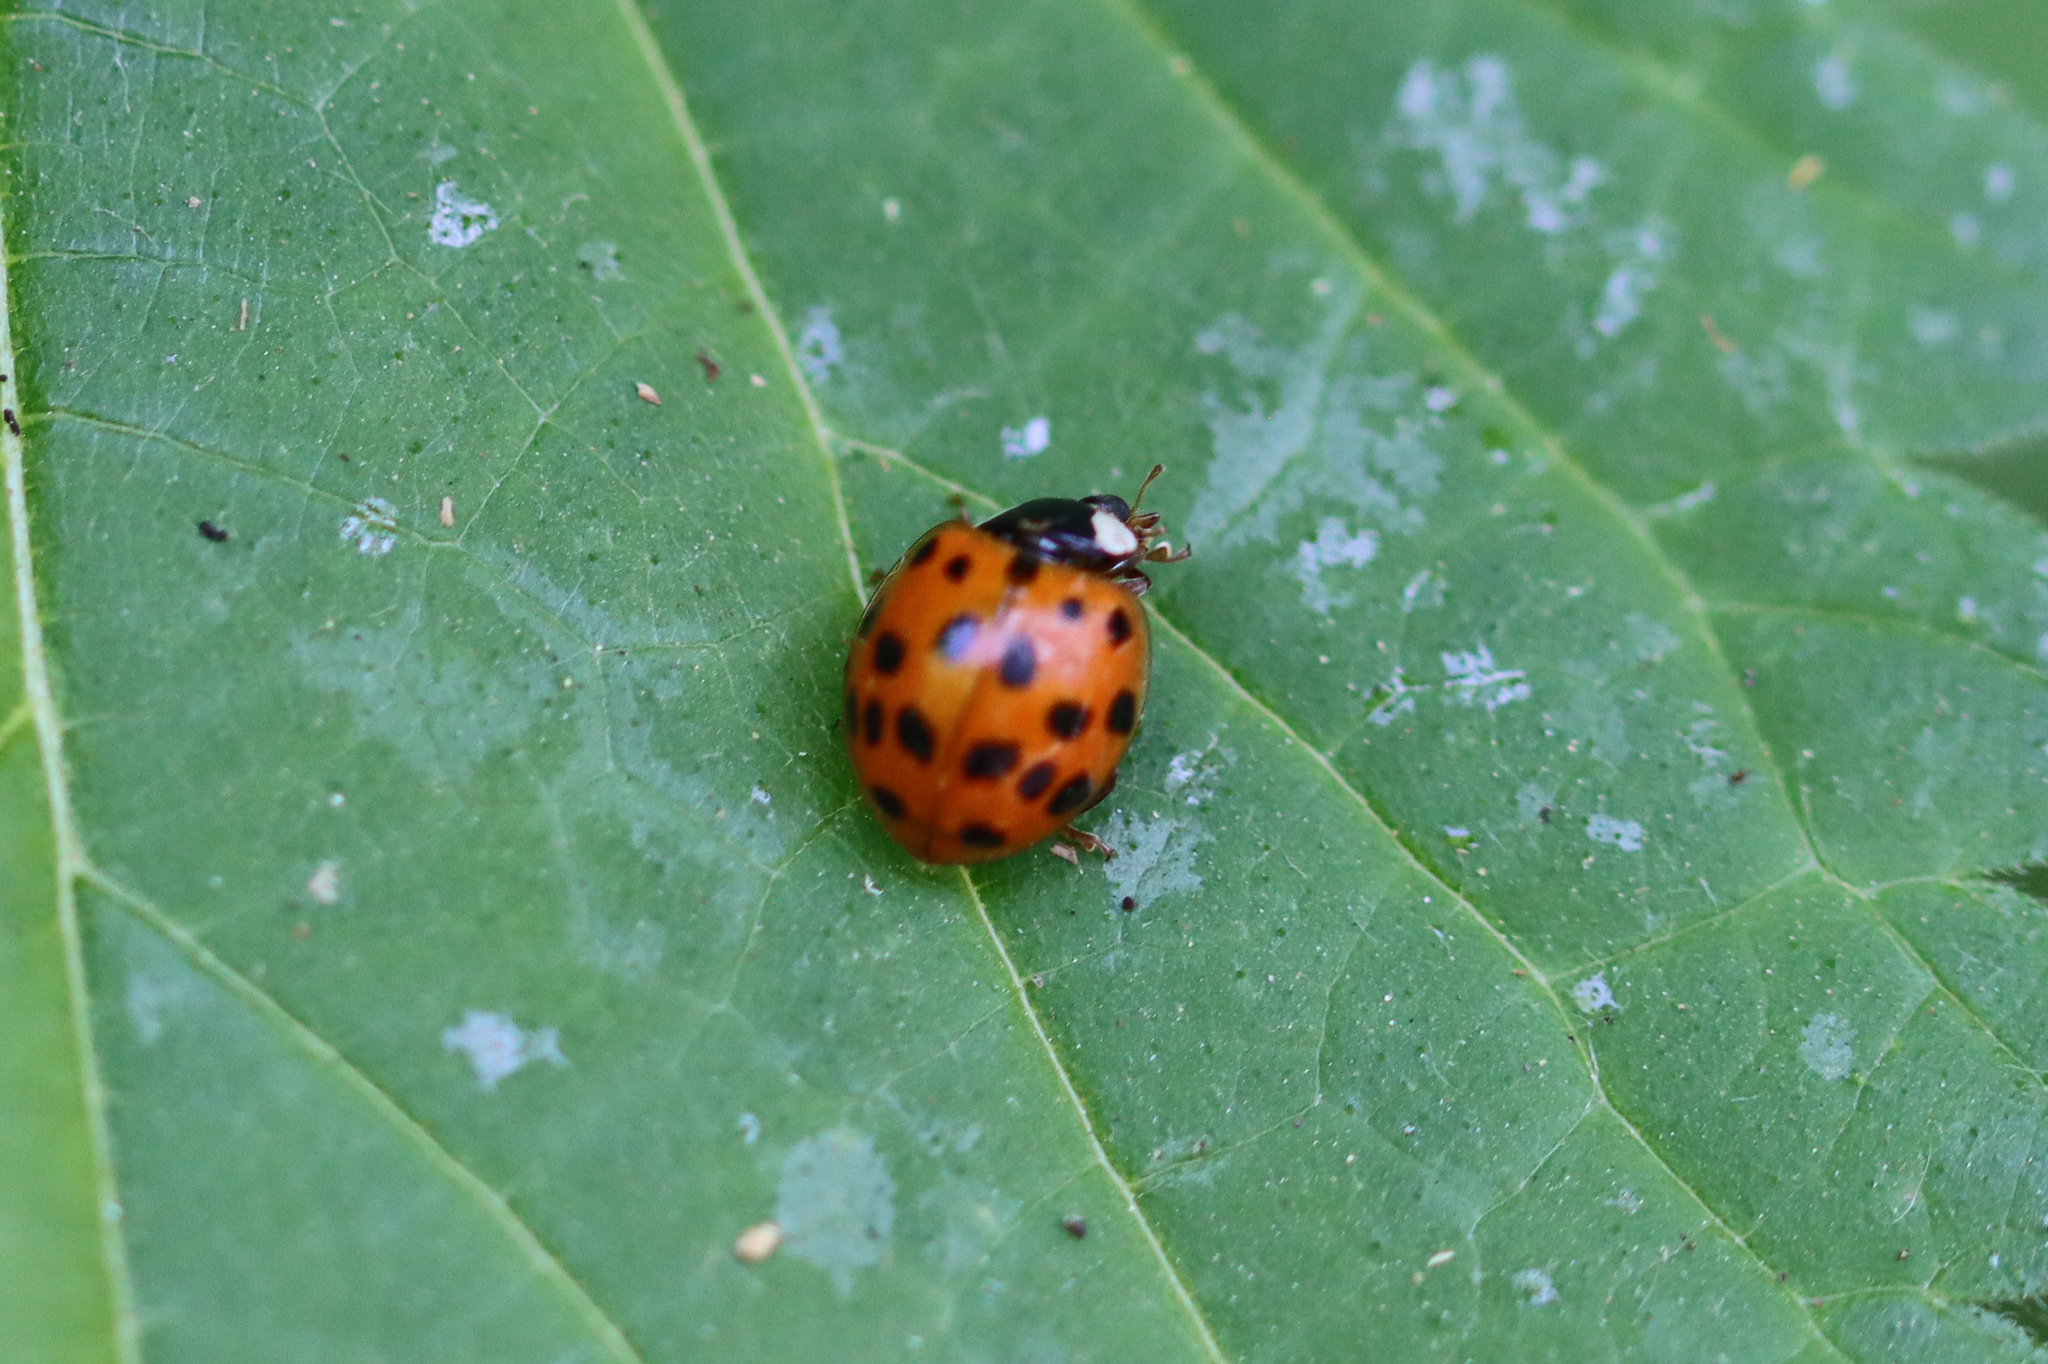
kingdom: Animalia
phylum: Arthropoda
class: Insecta
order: Coleoptera
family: Coccinellidae
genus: Harmonia
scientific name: Harmonia axyridis
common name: Harlequin ladybird
